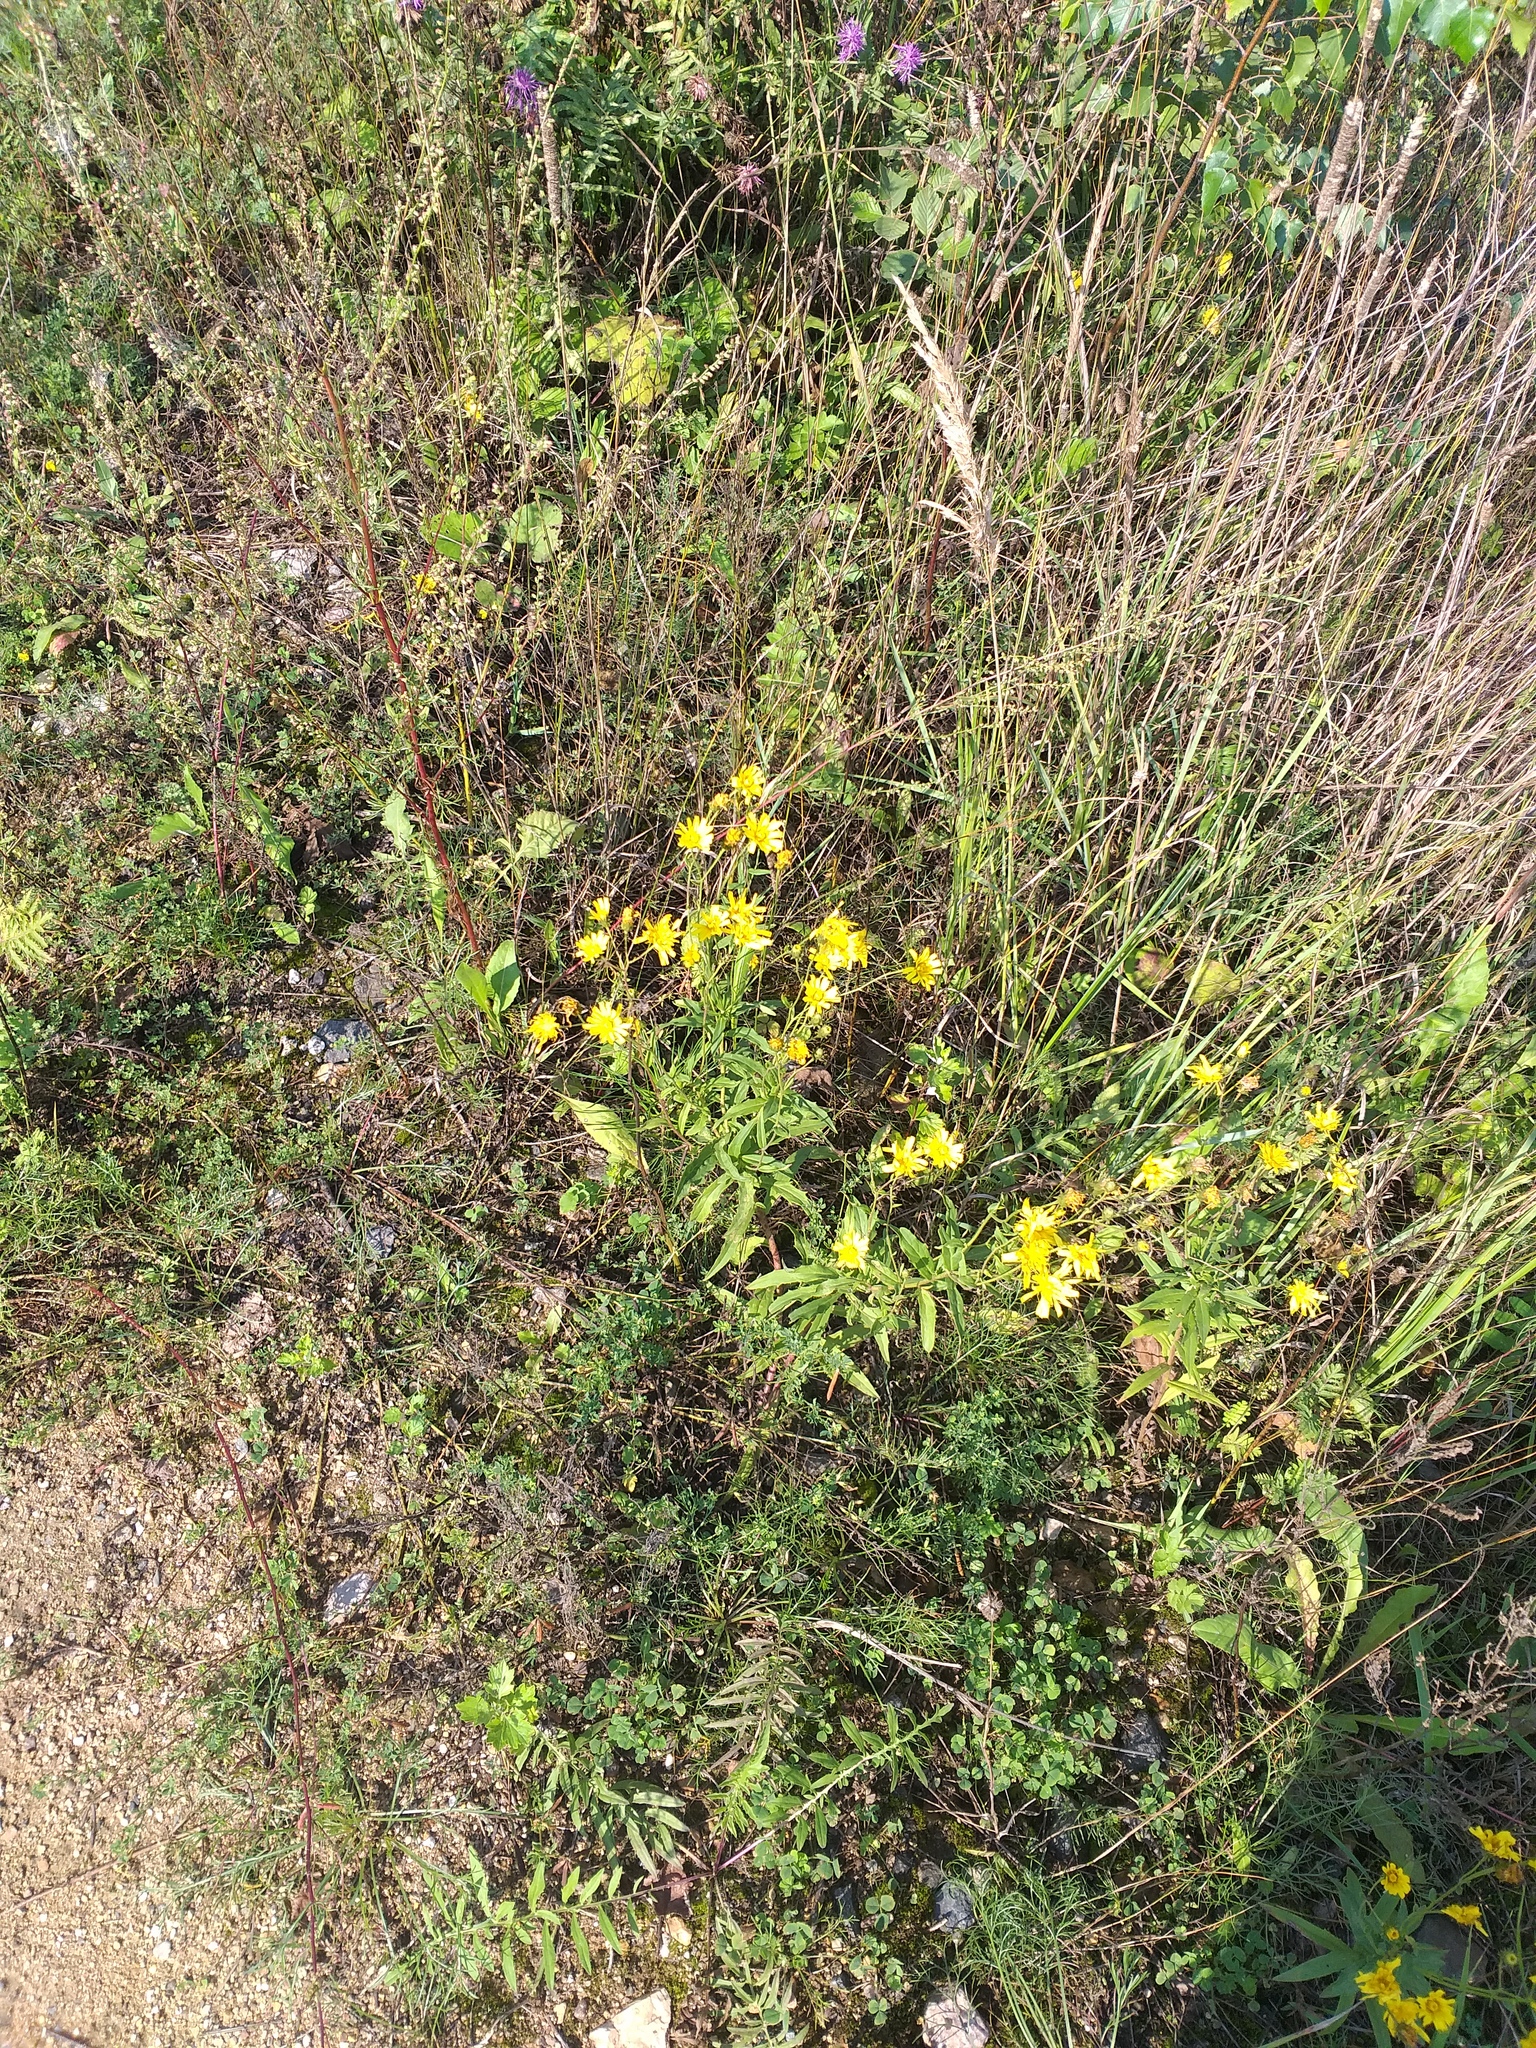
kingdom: Plantae
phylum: Tracheophyta
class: Magnoliopsida
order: Asterales
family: Asteraceae
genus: Hieracium
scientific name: Hieracium umbellatum
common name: Northern hawkweed
